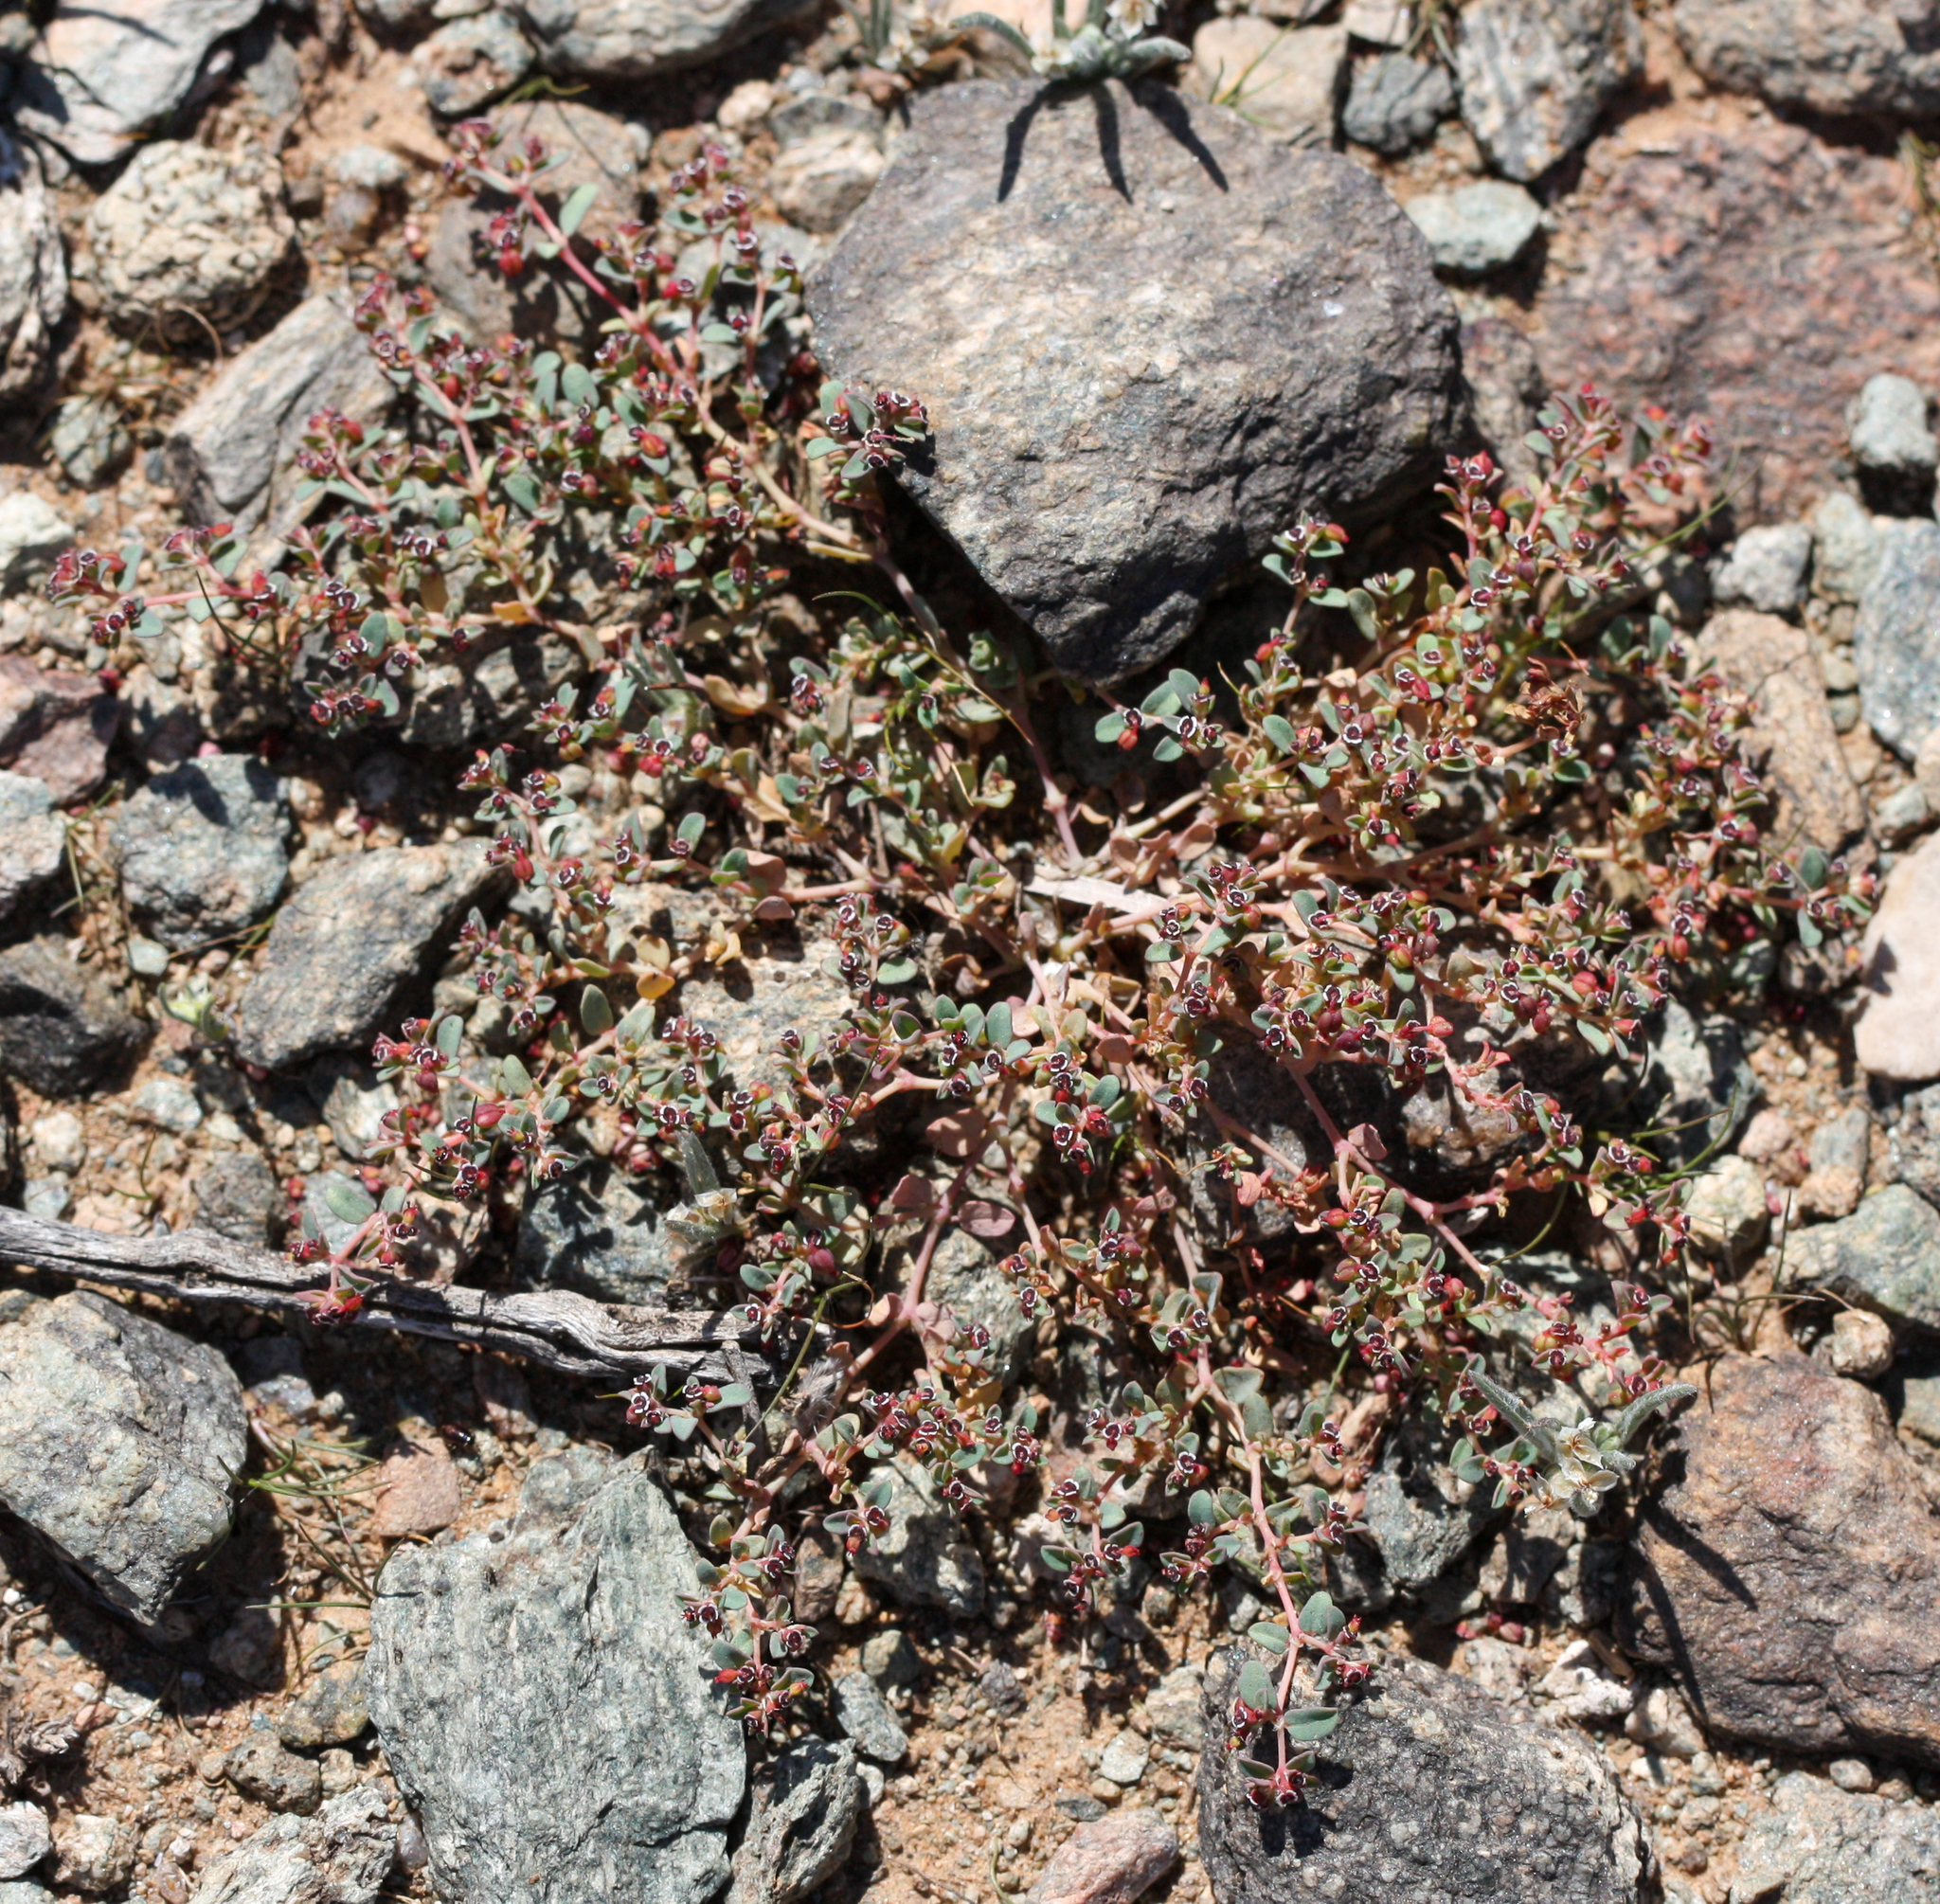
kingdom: Plantae
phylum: Tracheophyta
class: Magnoliopsida
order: Malpighiales
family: Euphorbiaceae
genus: Euphorbia
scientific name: Euphorbia polycarpa
